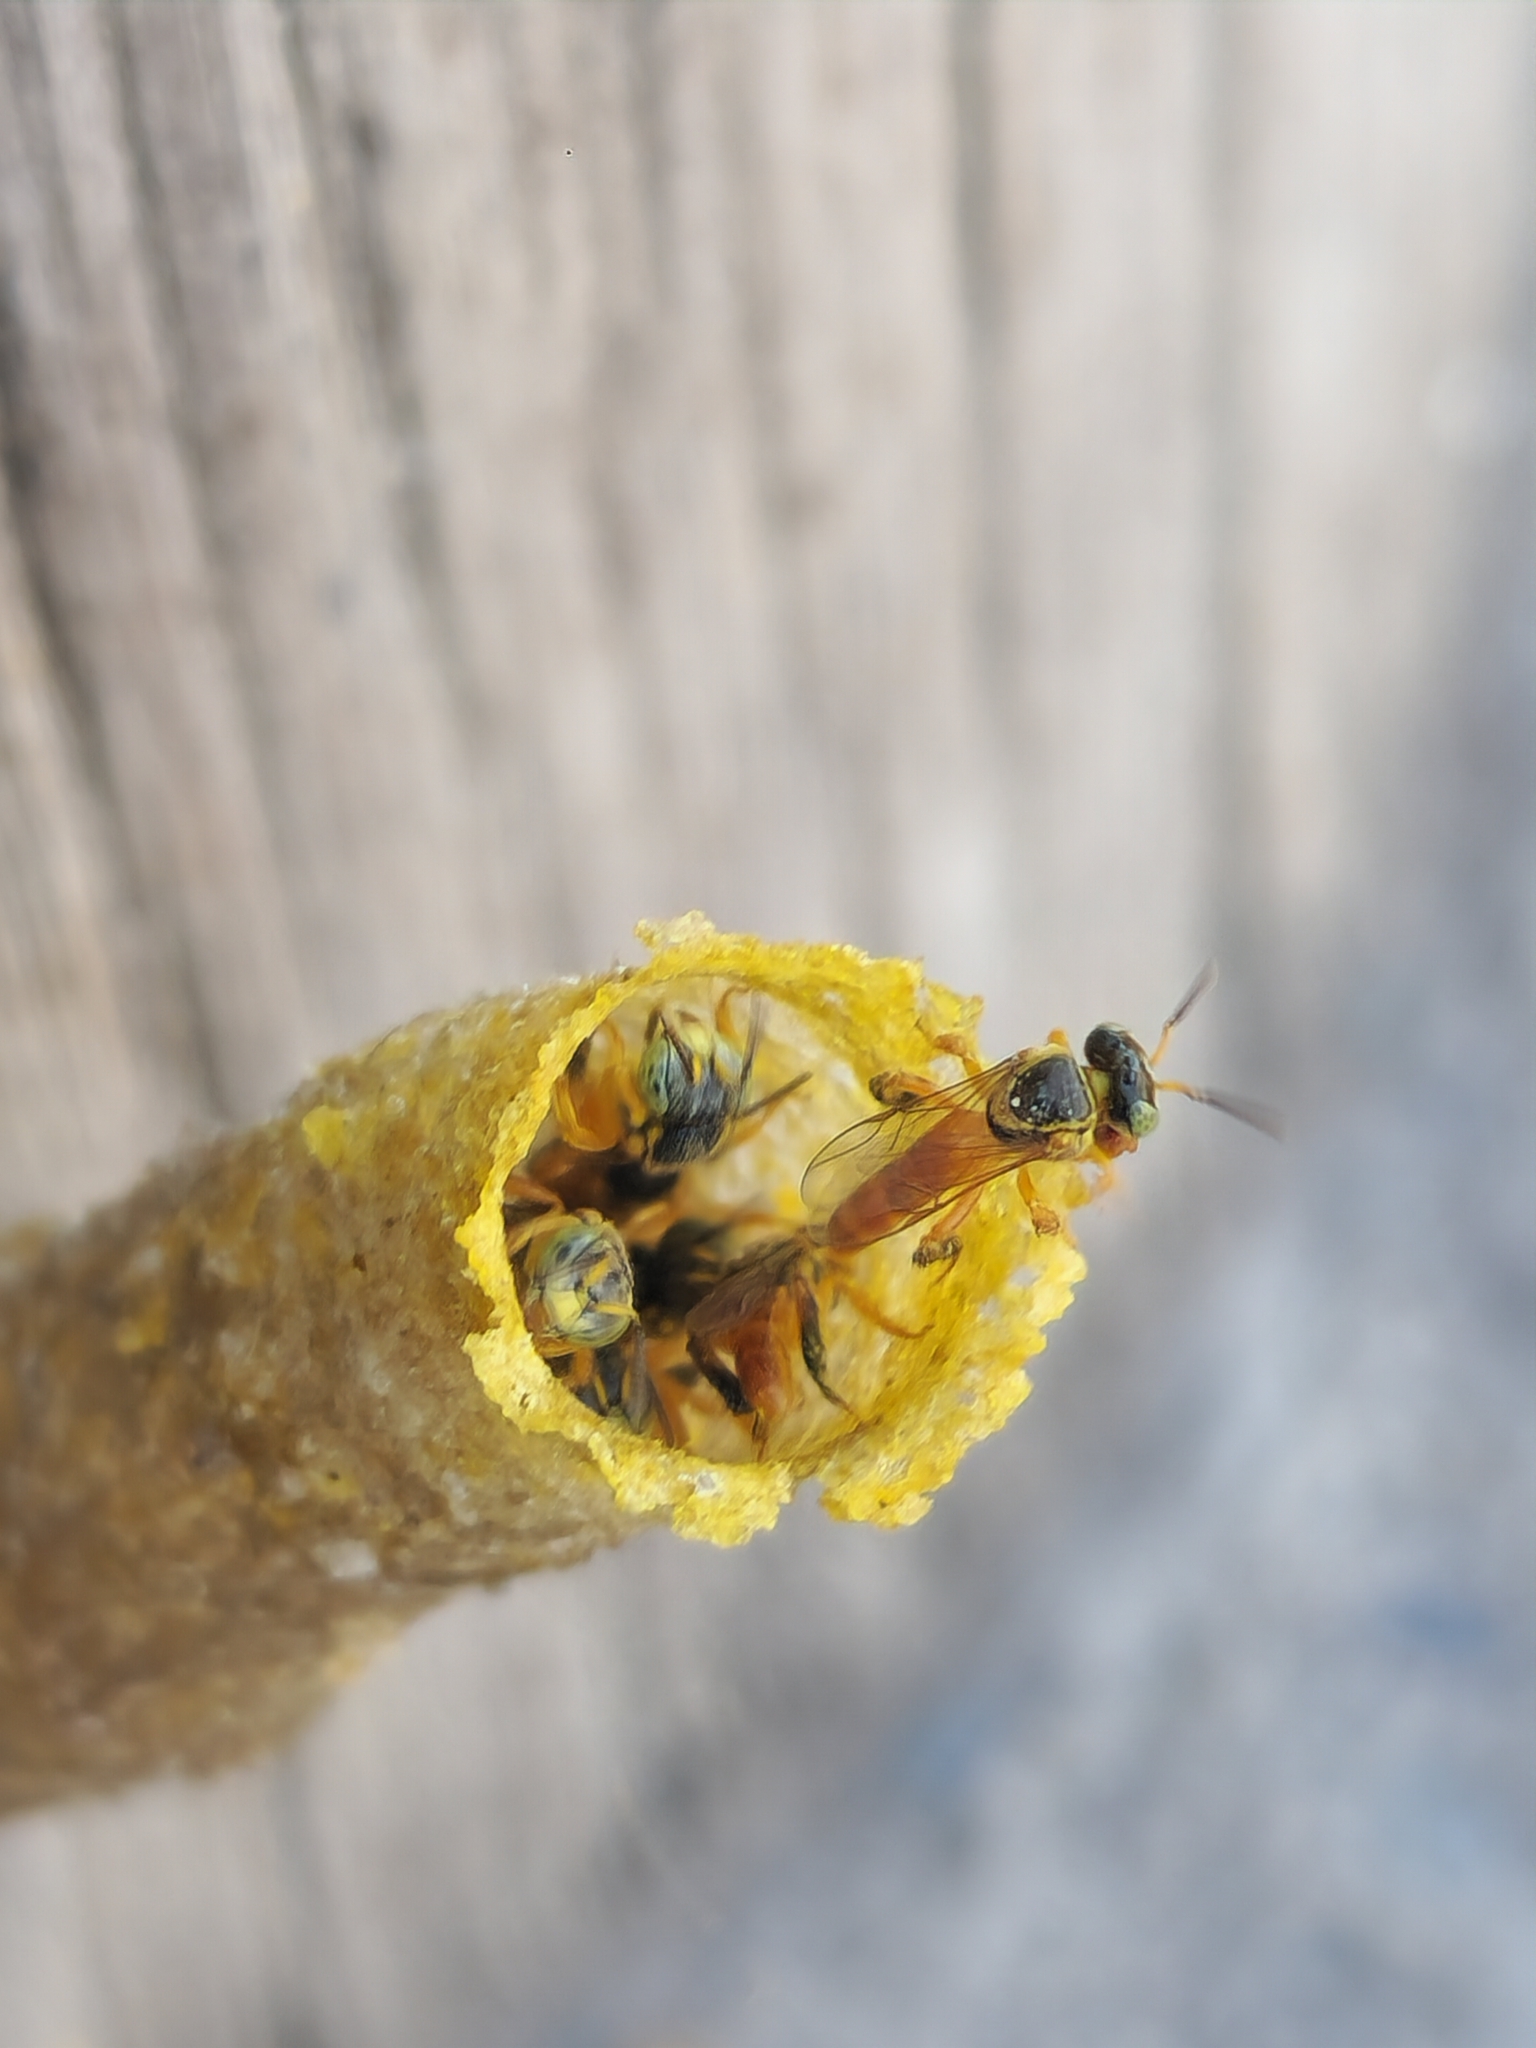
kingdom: Animalia
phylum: Arthropoda
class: Insecta
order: Hymenoptera
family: Apidae
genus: Tetragonisca
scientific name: Tetragonisca fiebrigi
